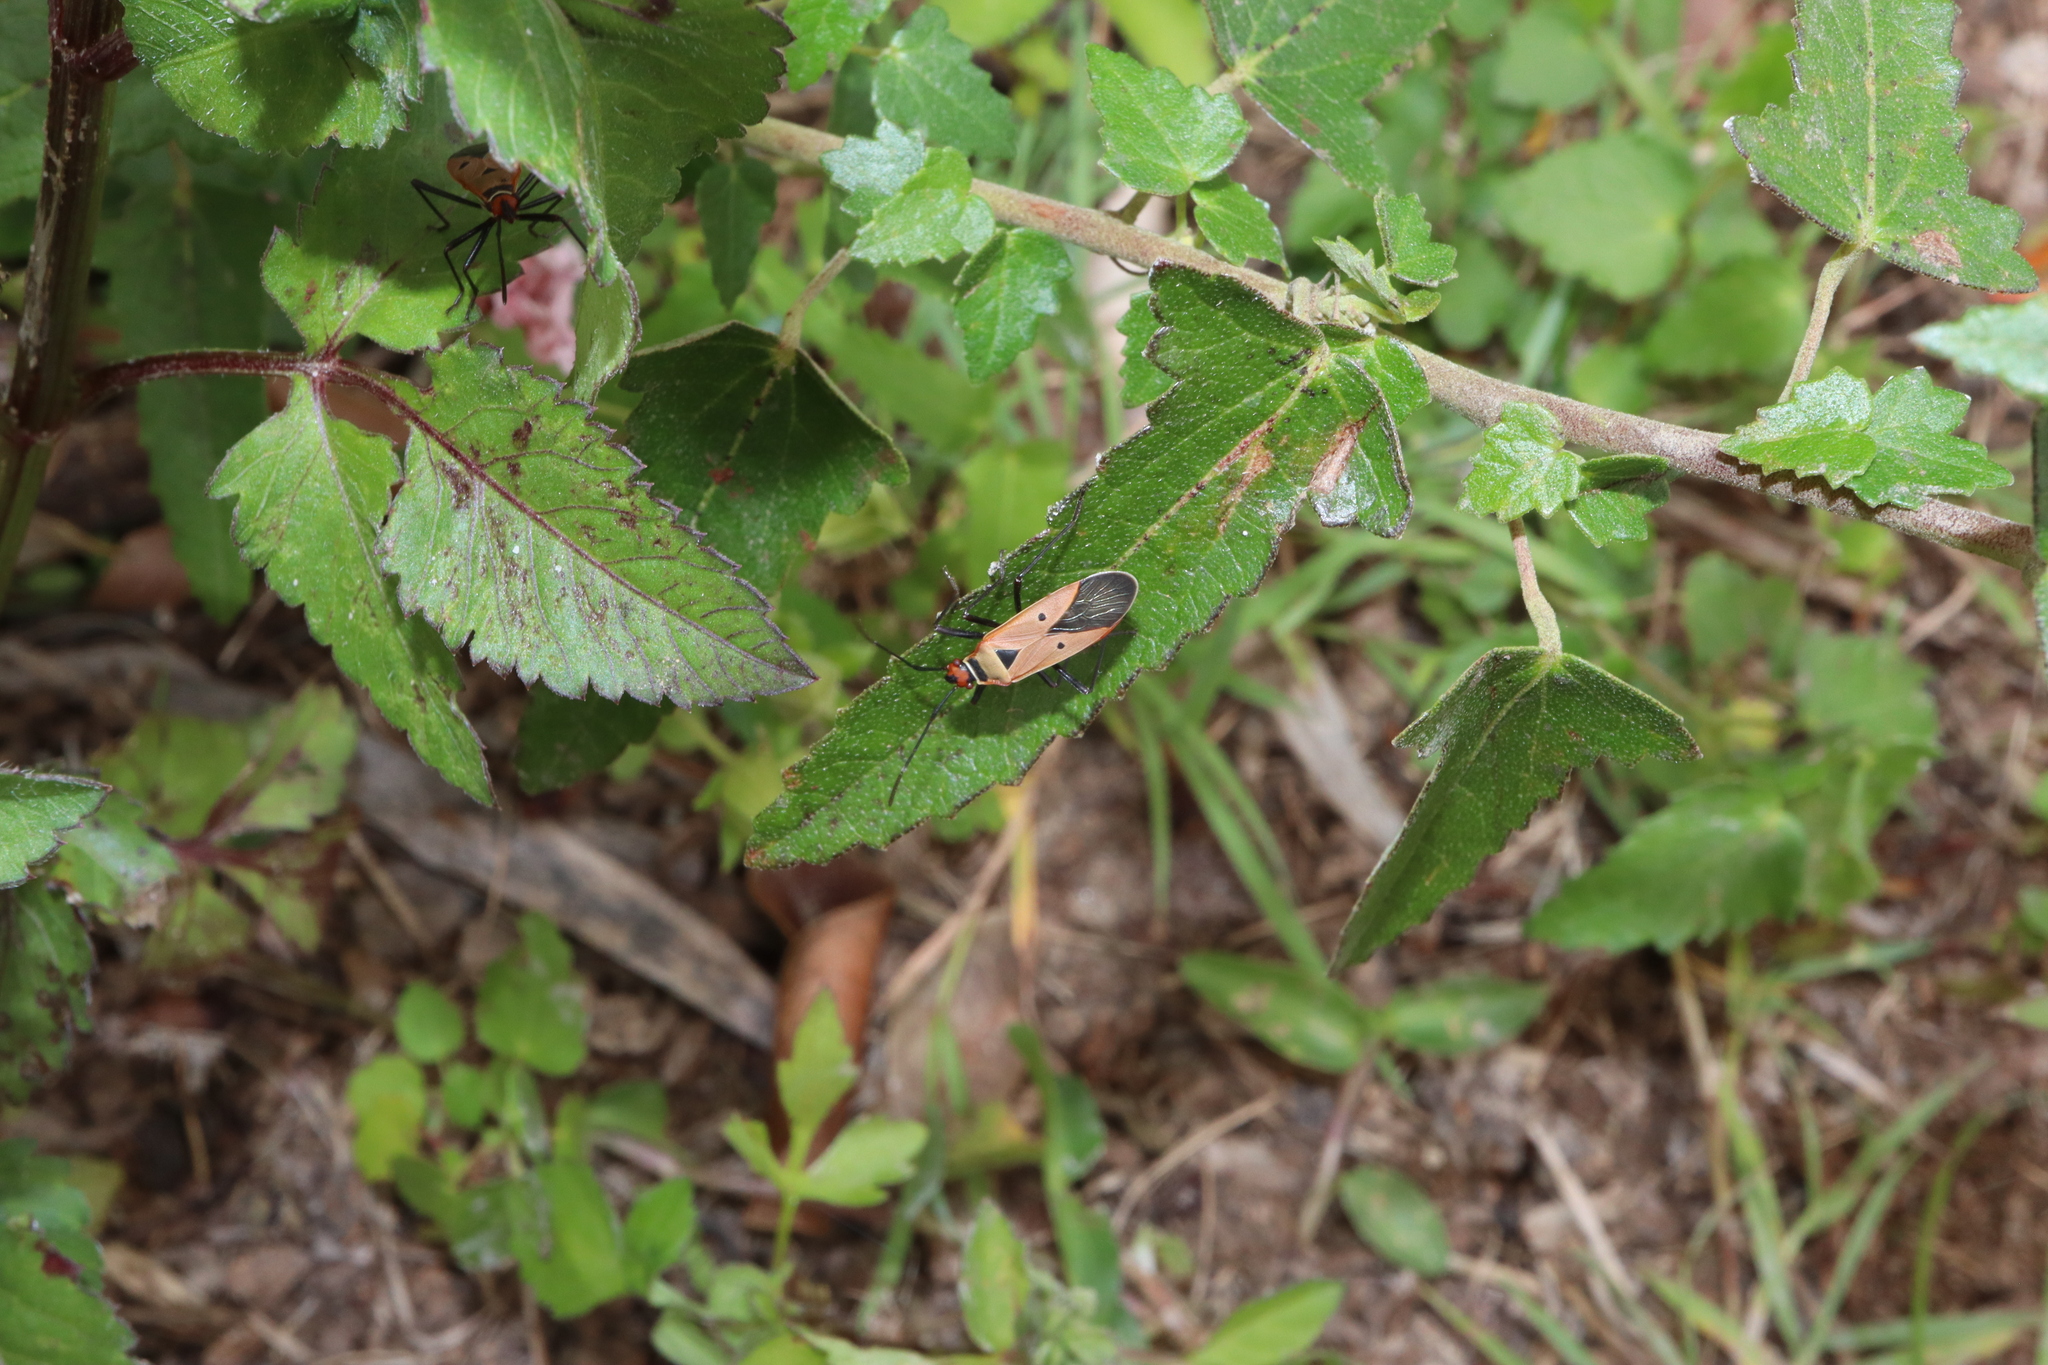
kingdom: Animalia
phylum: Arthropoda
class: Insecta
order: Hemiptera
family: Pyrrhocoridae
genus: Dysdercus
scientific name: Dysdercus sidae
